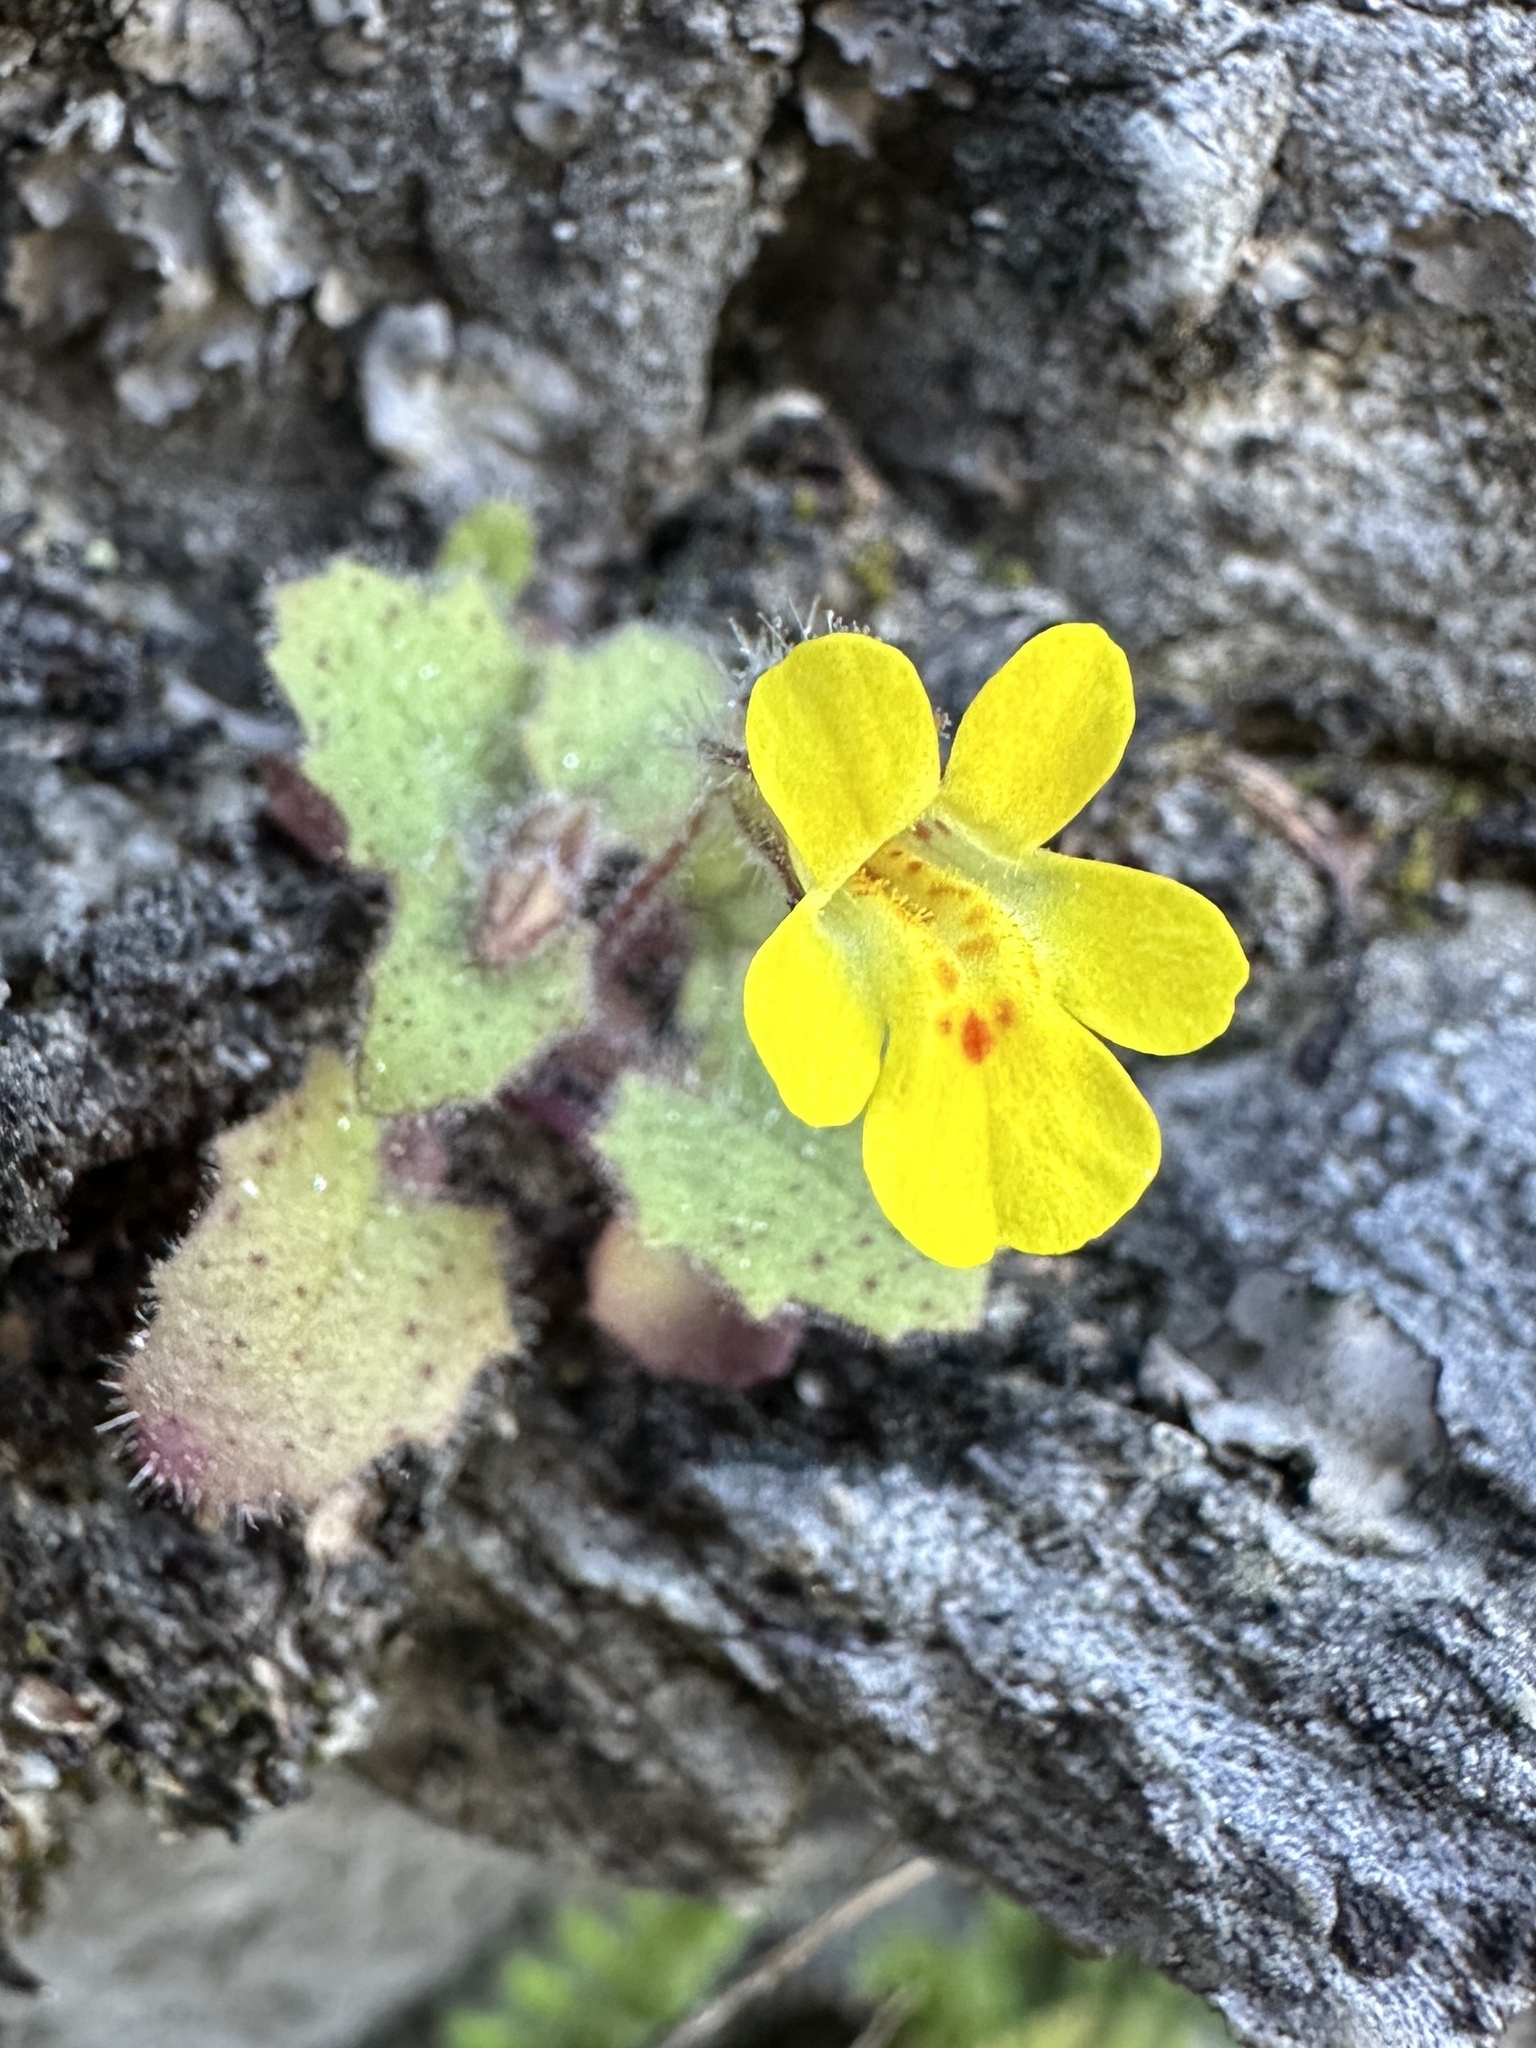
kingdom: Plantae
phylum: Tracheophyta
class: Magnoliopsida
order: Lamiales
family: Phrymaceae
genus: Erythranthe
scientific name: Erythranthe marmorata
